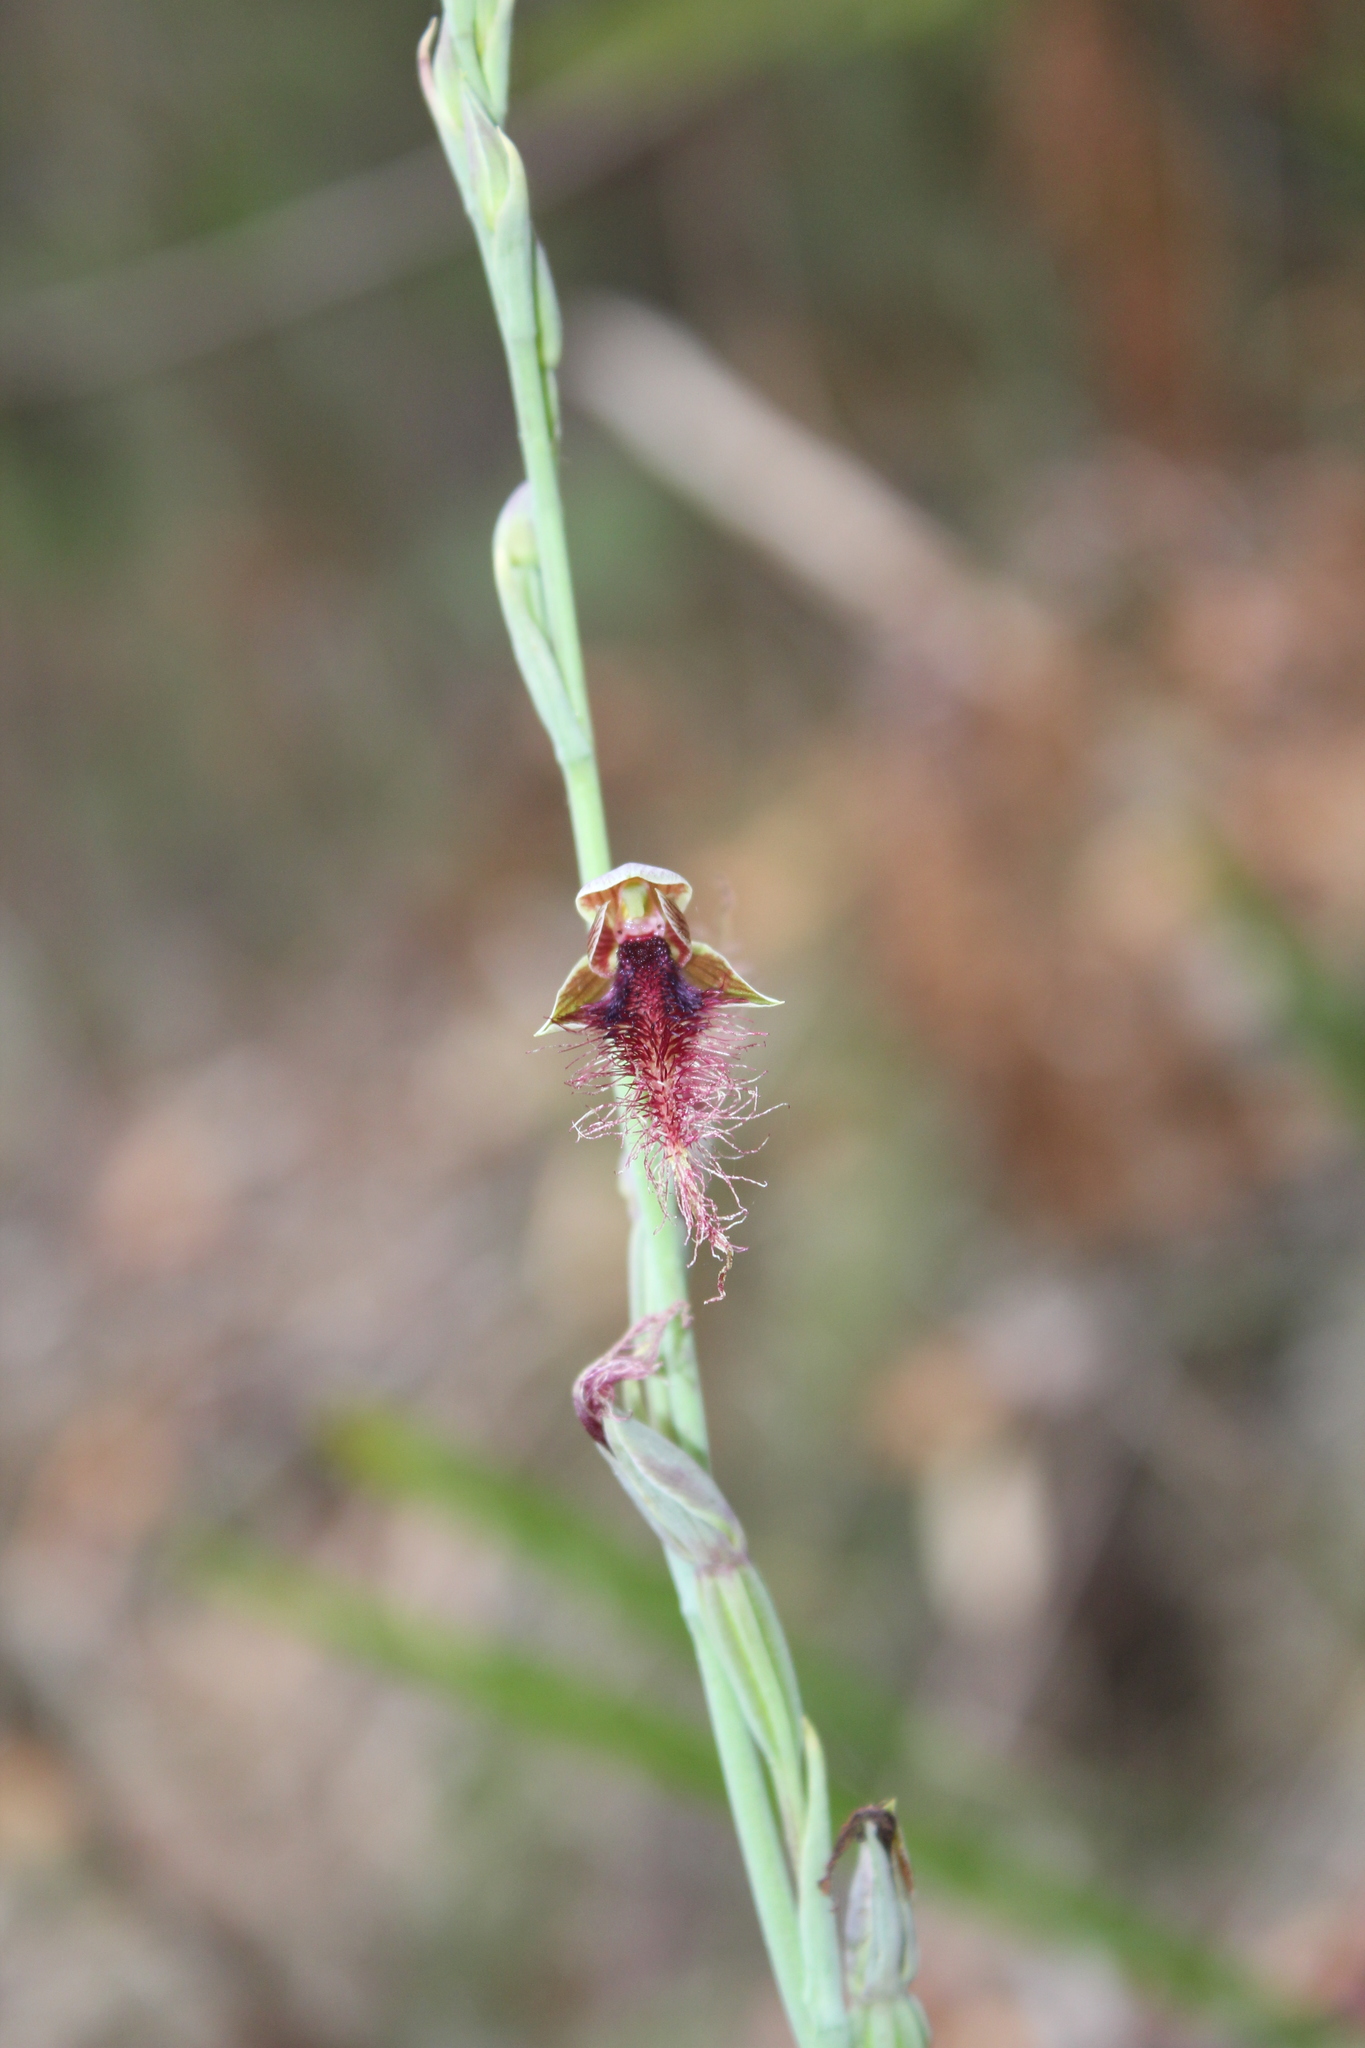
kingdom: Plantae
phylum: Tracheophyta
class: Liliopsida
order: Asparagales
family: Orchidaceae
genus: Calochilus
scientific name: Calochilus gracillimus
